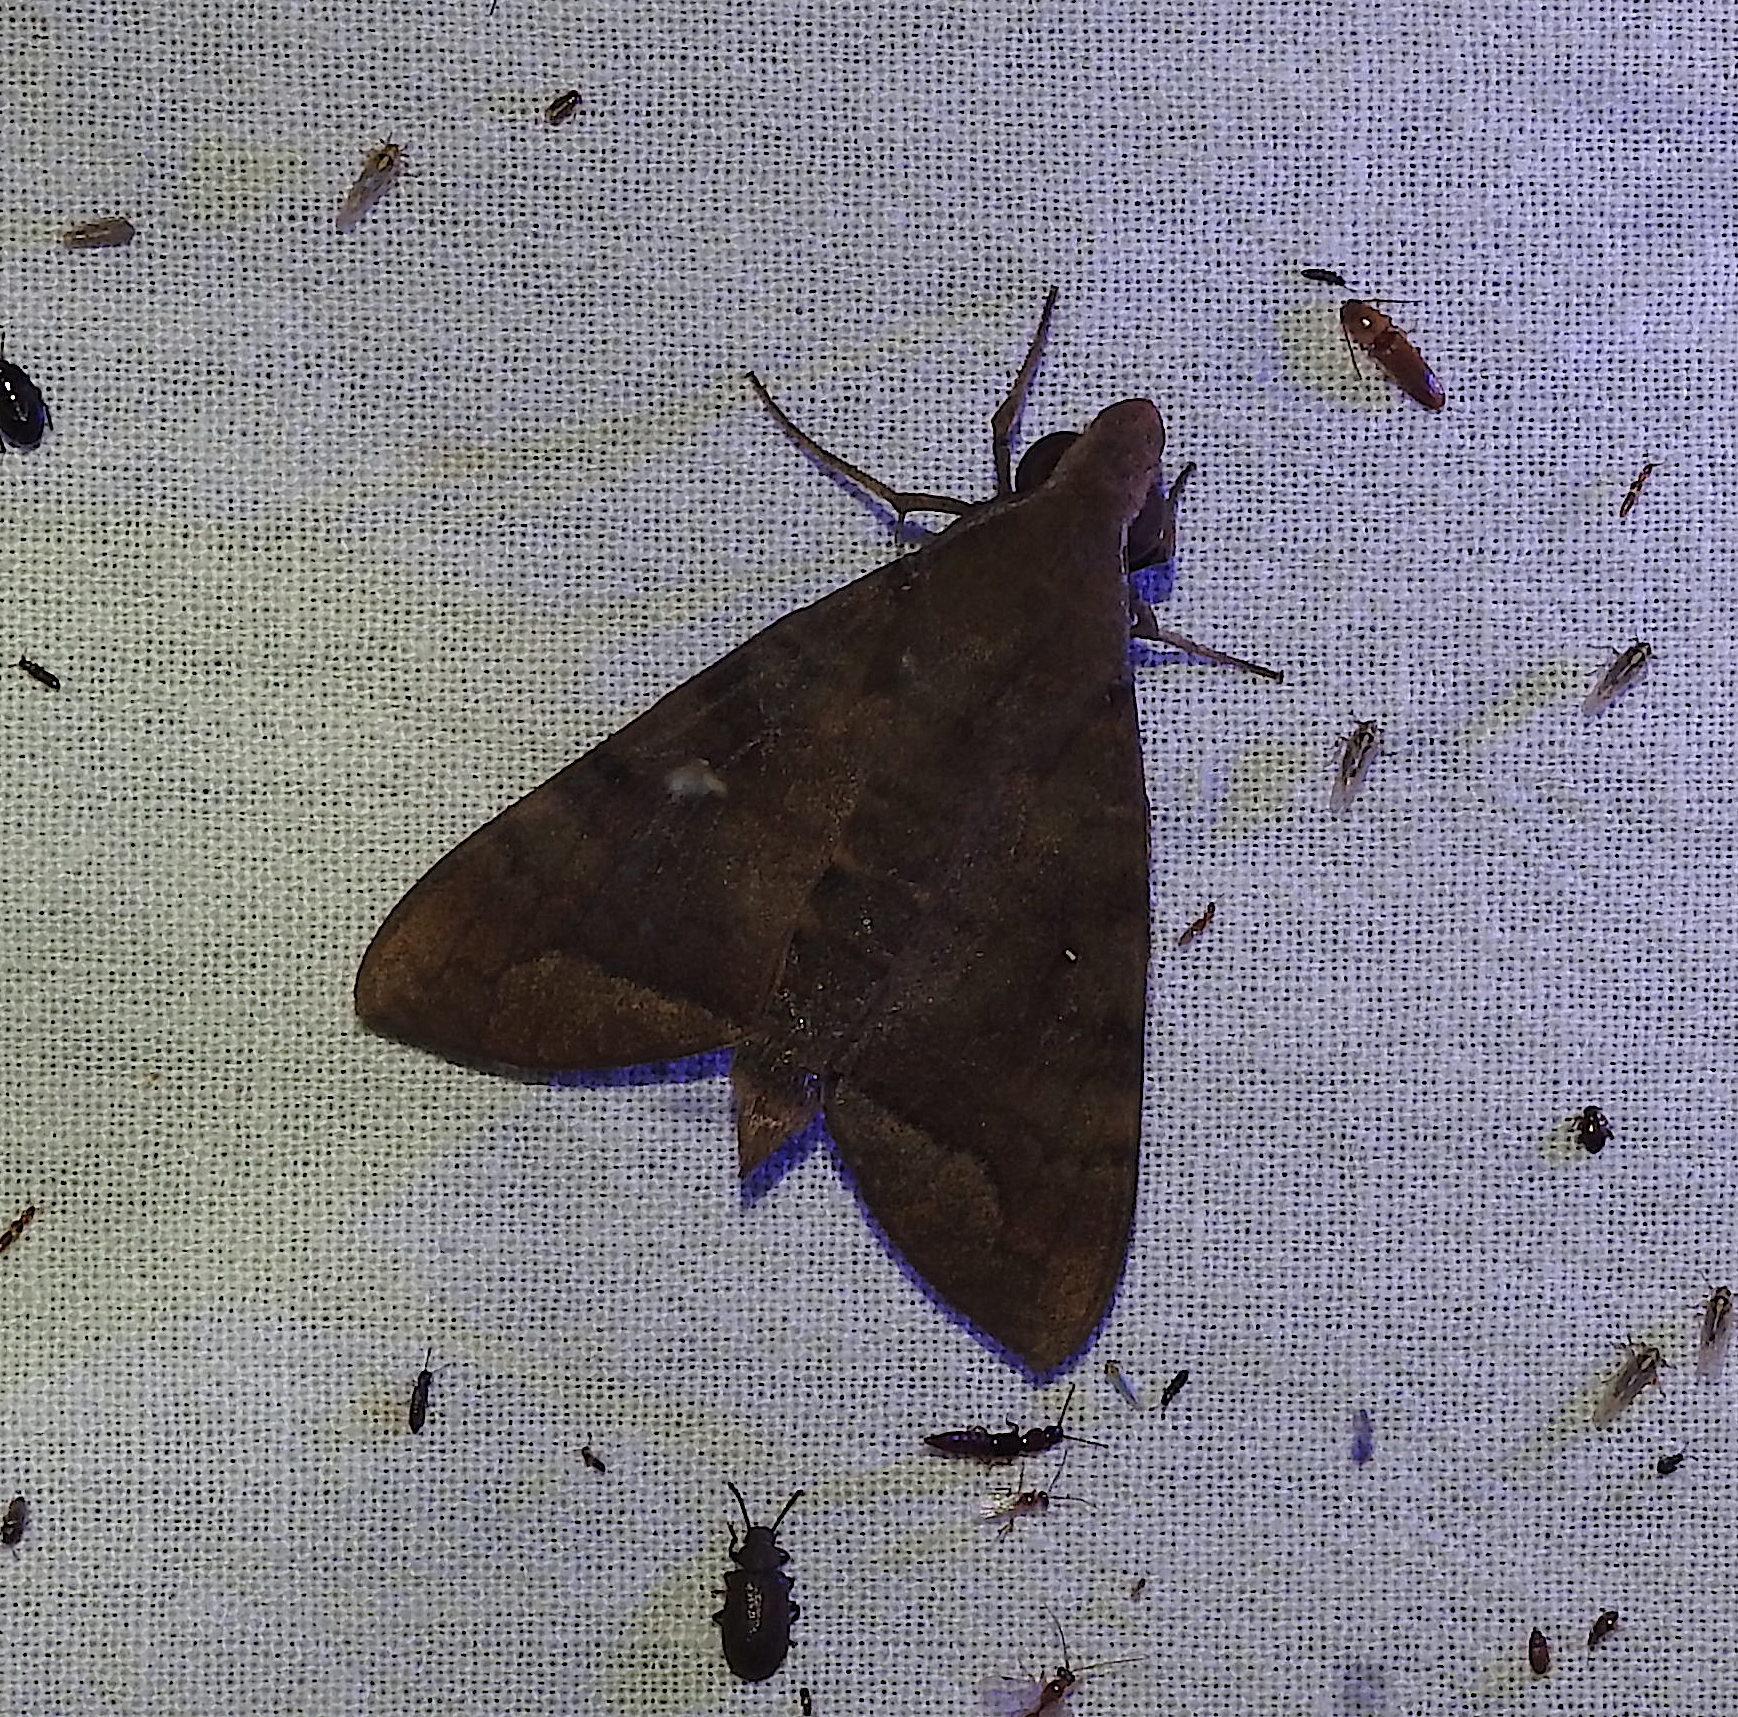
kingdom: Animalia
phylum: Arthropoda
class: Insecta
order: Lepidoptera
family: Sphingidae
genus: Nephele
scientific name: Nephele hespera
